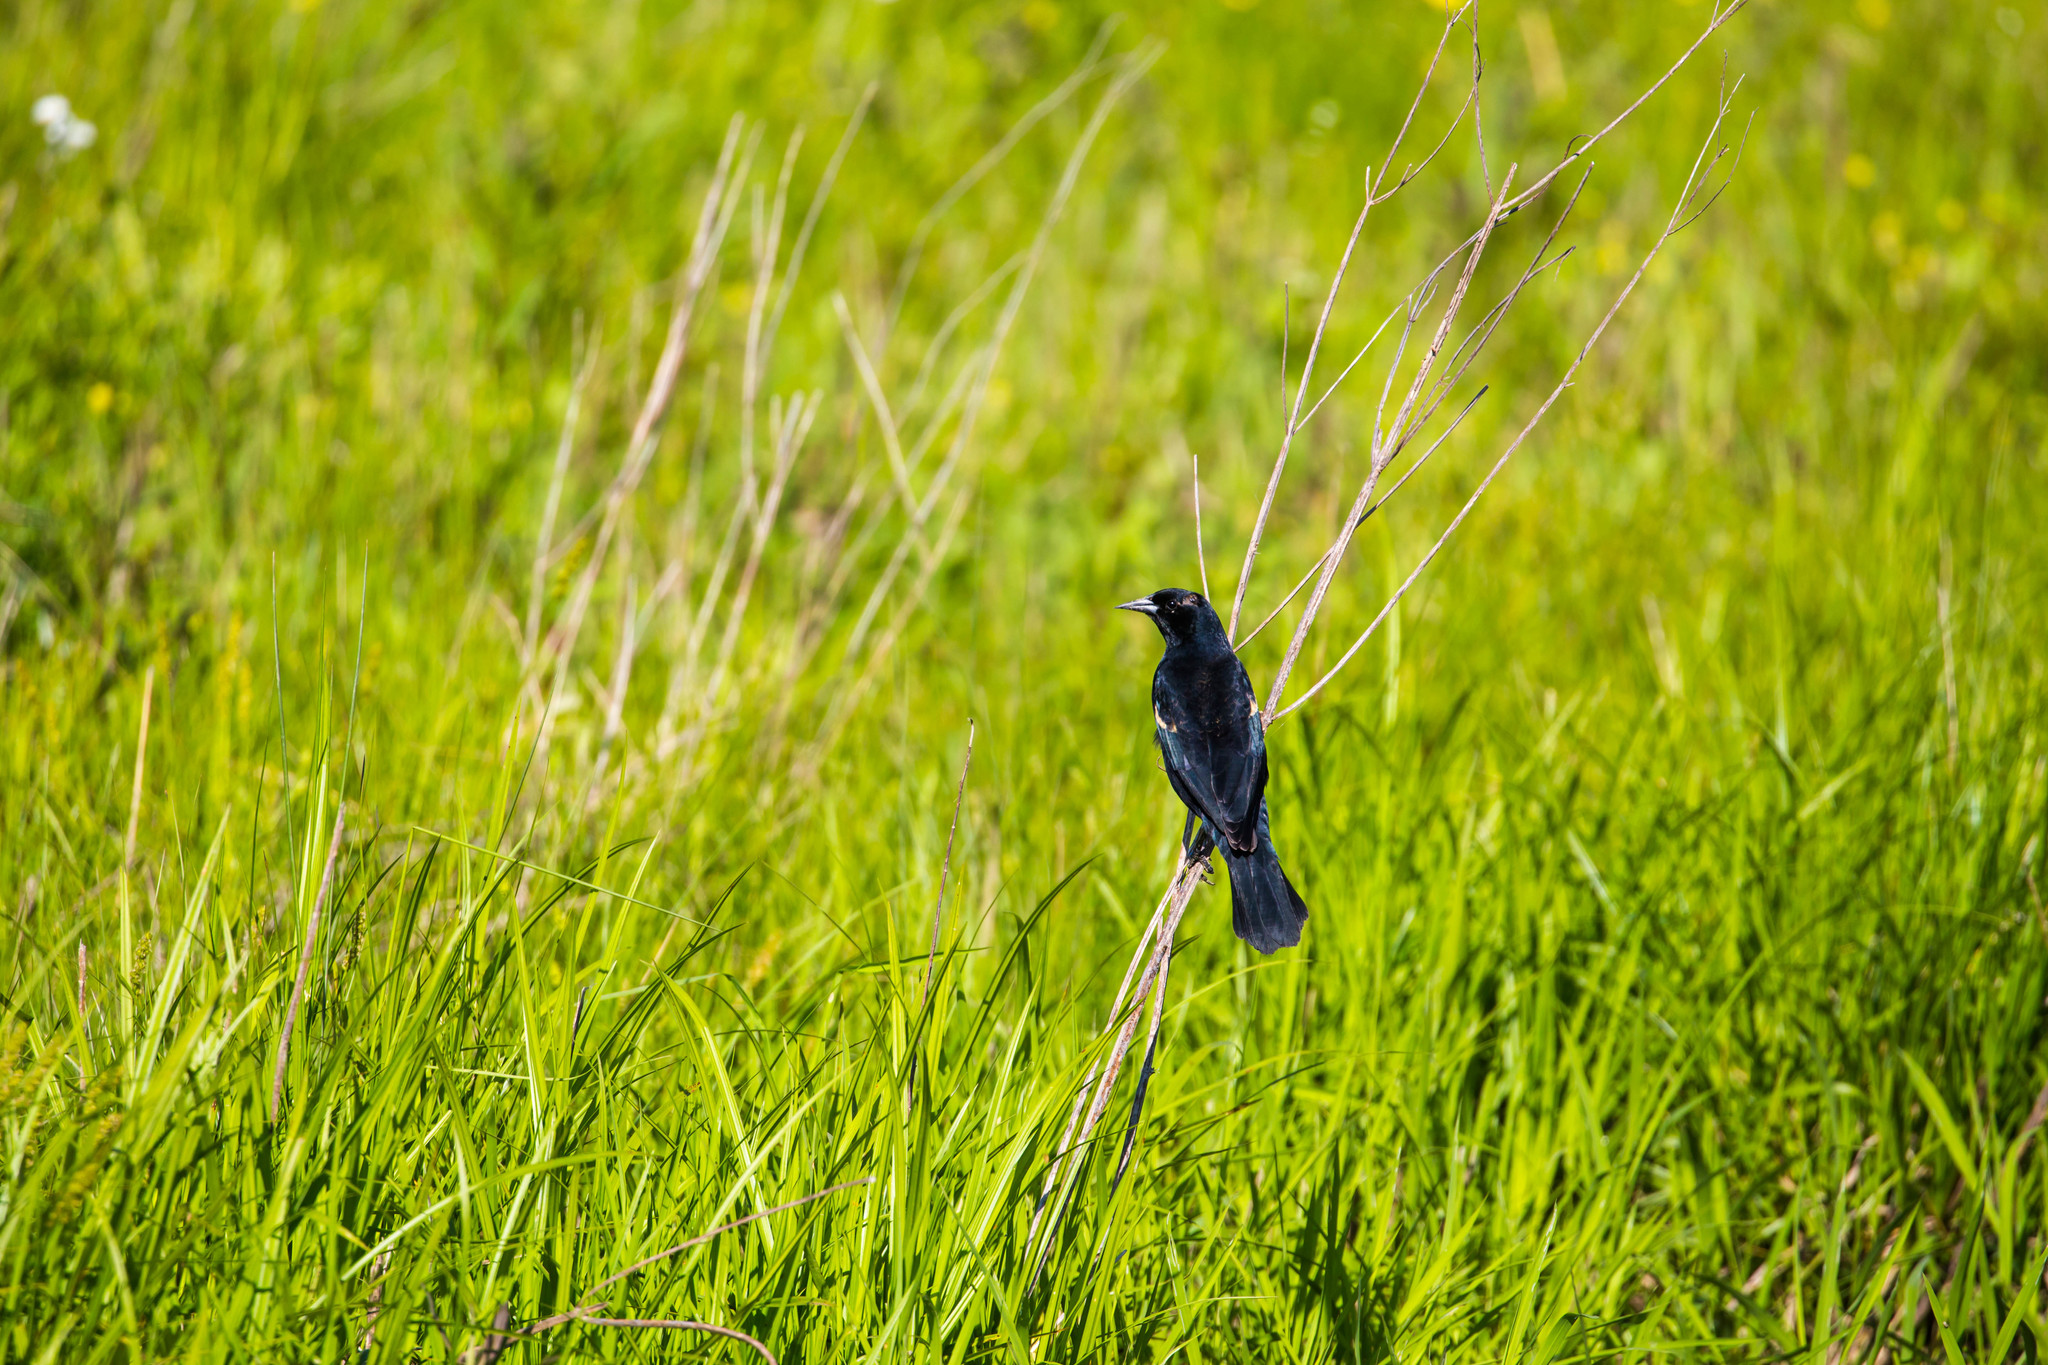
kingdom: Animalia
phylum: Chordata
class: Aves
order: Passeriformes
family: Icteridae
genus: Agelaius
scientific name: Agelaius phoeniceus
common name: Red-winged blackbird
